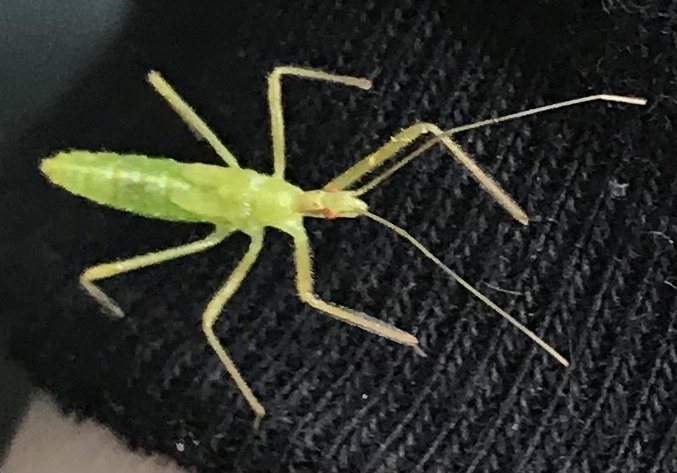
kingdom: Animalia
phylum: Arthropoda
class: Insecta
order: Hemiptera
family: Reduviidae
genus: Zelus
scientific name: Zelus luridus
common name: Pale green assassin bug
